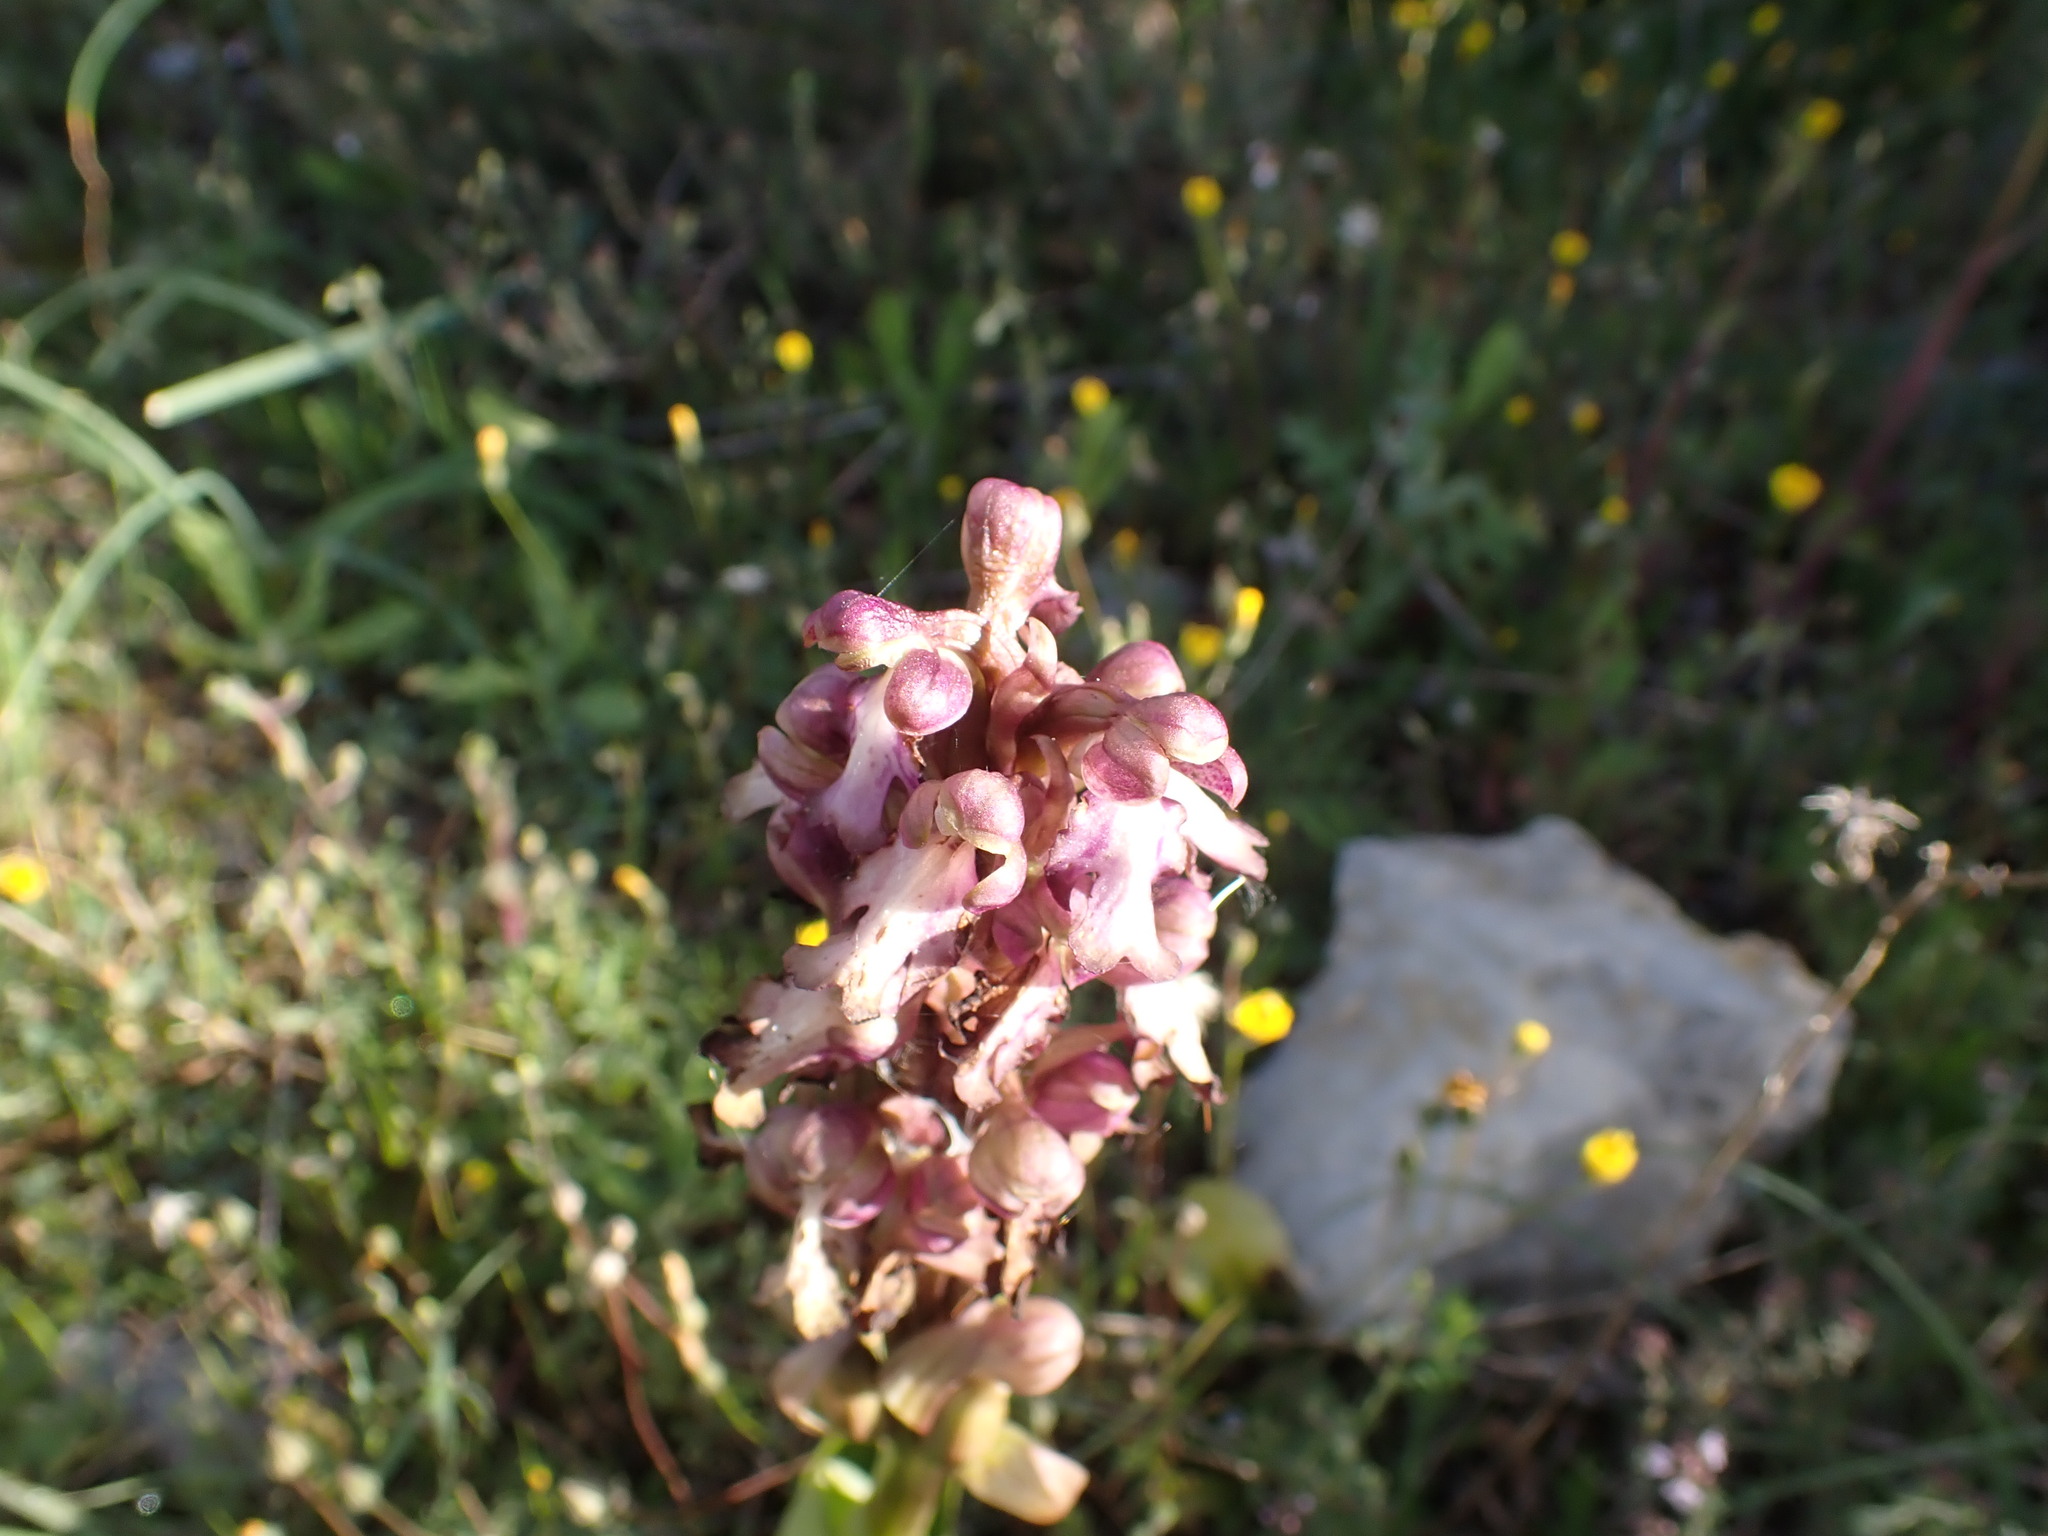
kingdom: Plantae
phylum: Tracheophyta
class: Liliopsida
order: Asparagales
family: Orchidaceae
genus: Himantoglossum
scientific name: Himantoglossum robertianum
